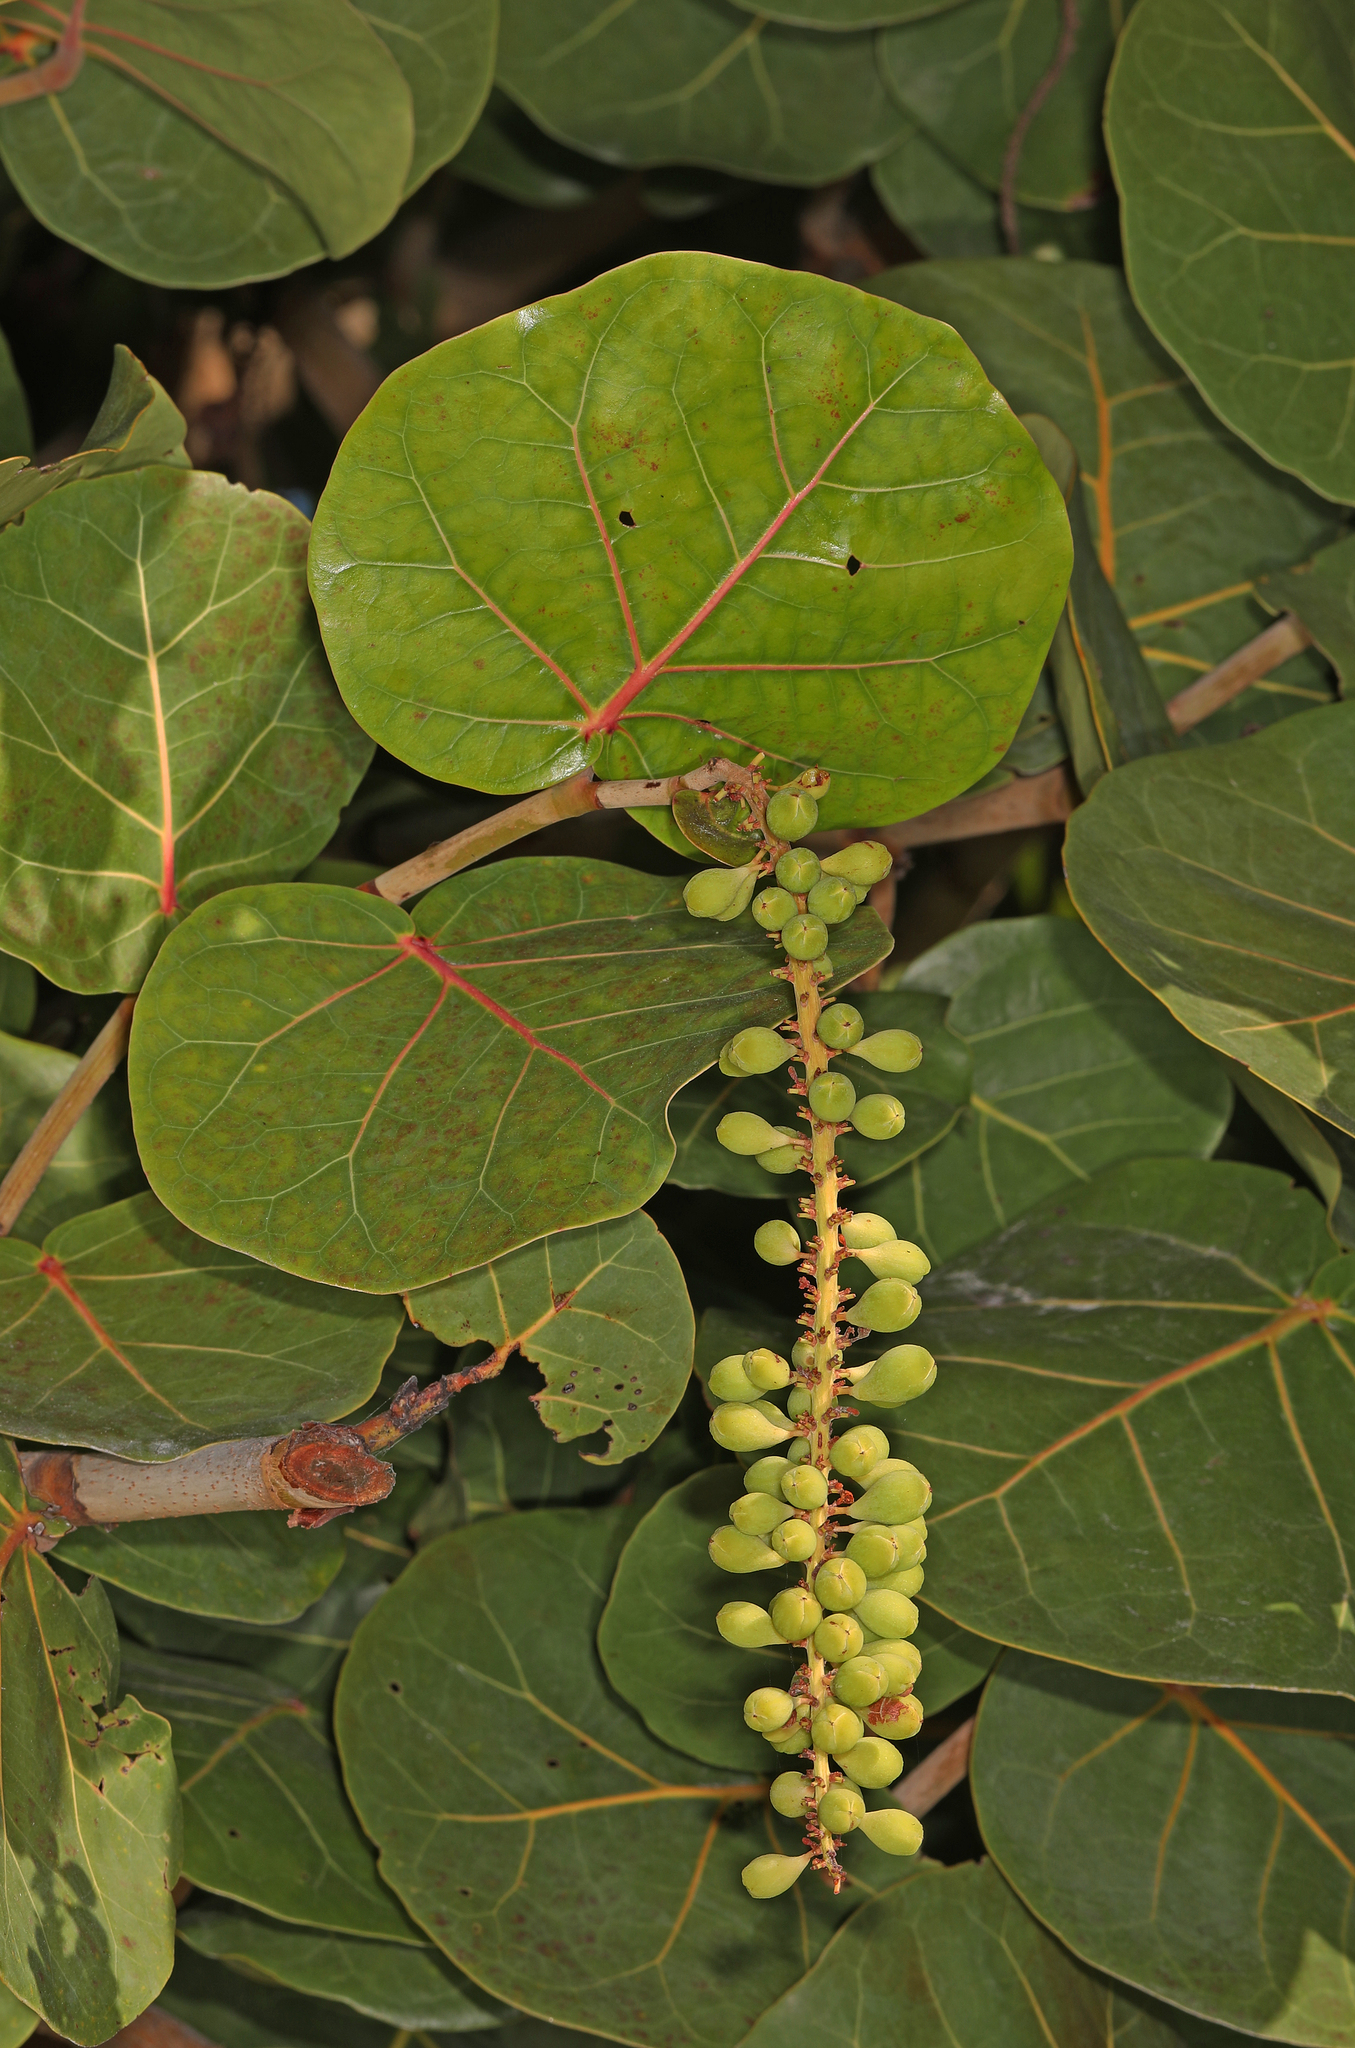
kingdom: Plantae
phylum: Tracheophyta
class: Magnoliopsida
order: Caryophyllales
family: Polygonaceae
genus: Coccoloba
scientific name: Coccoloba uvifera
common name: Seagrape
